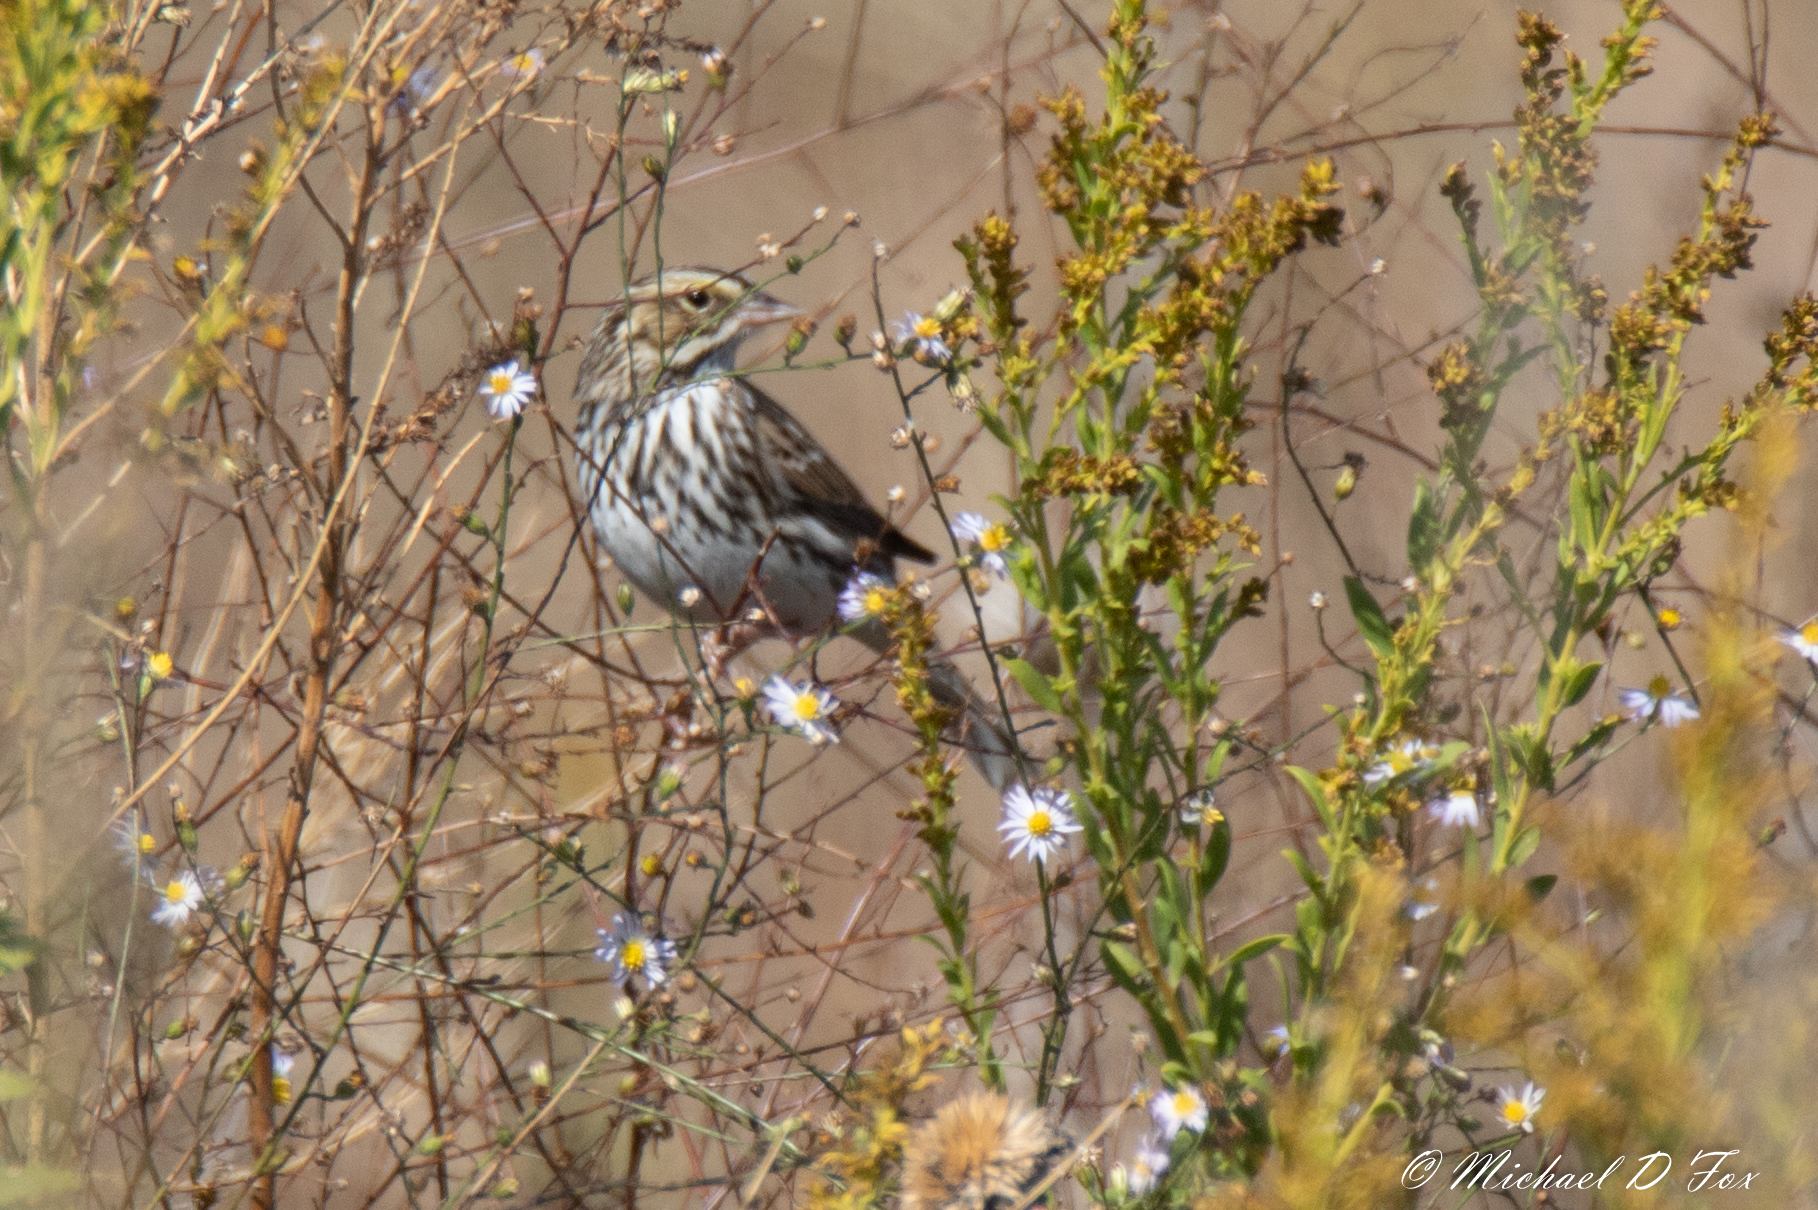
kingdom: Animalia
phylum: Chordata
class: Aves
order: Passeriformes
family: Passerellidae
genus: Pooecetes
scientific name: Pooecetes gramineus
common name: Vesper sparrow
